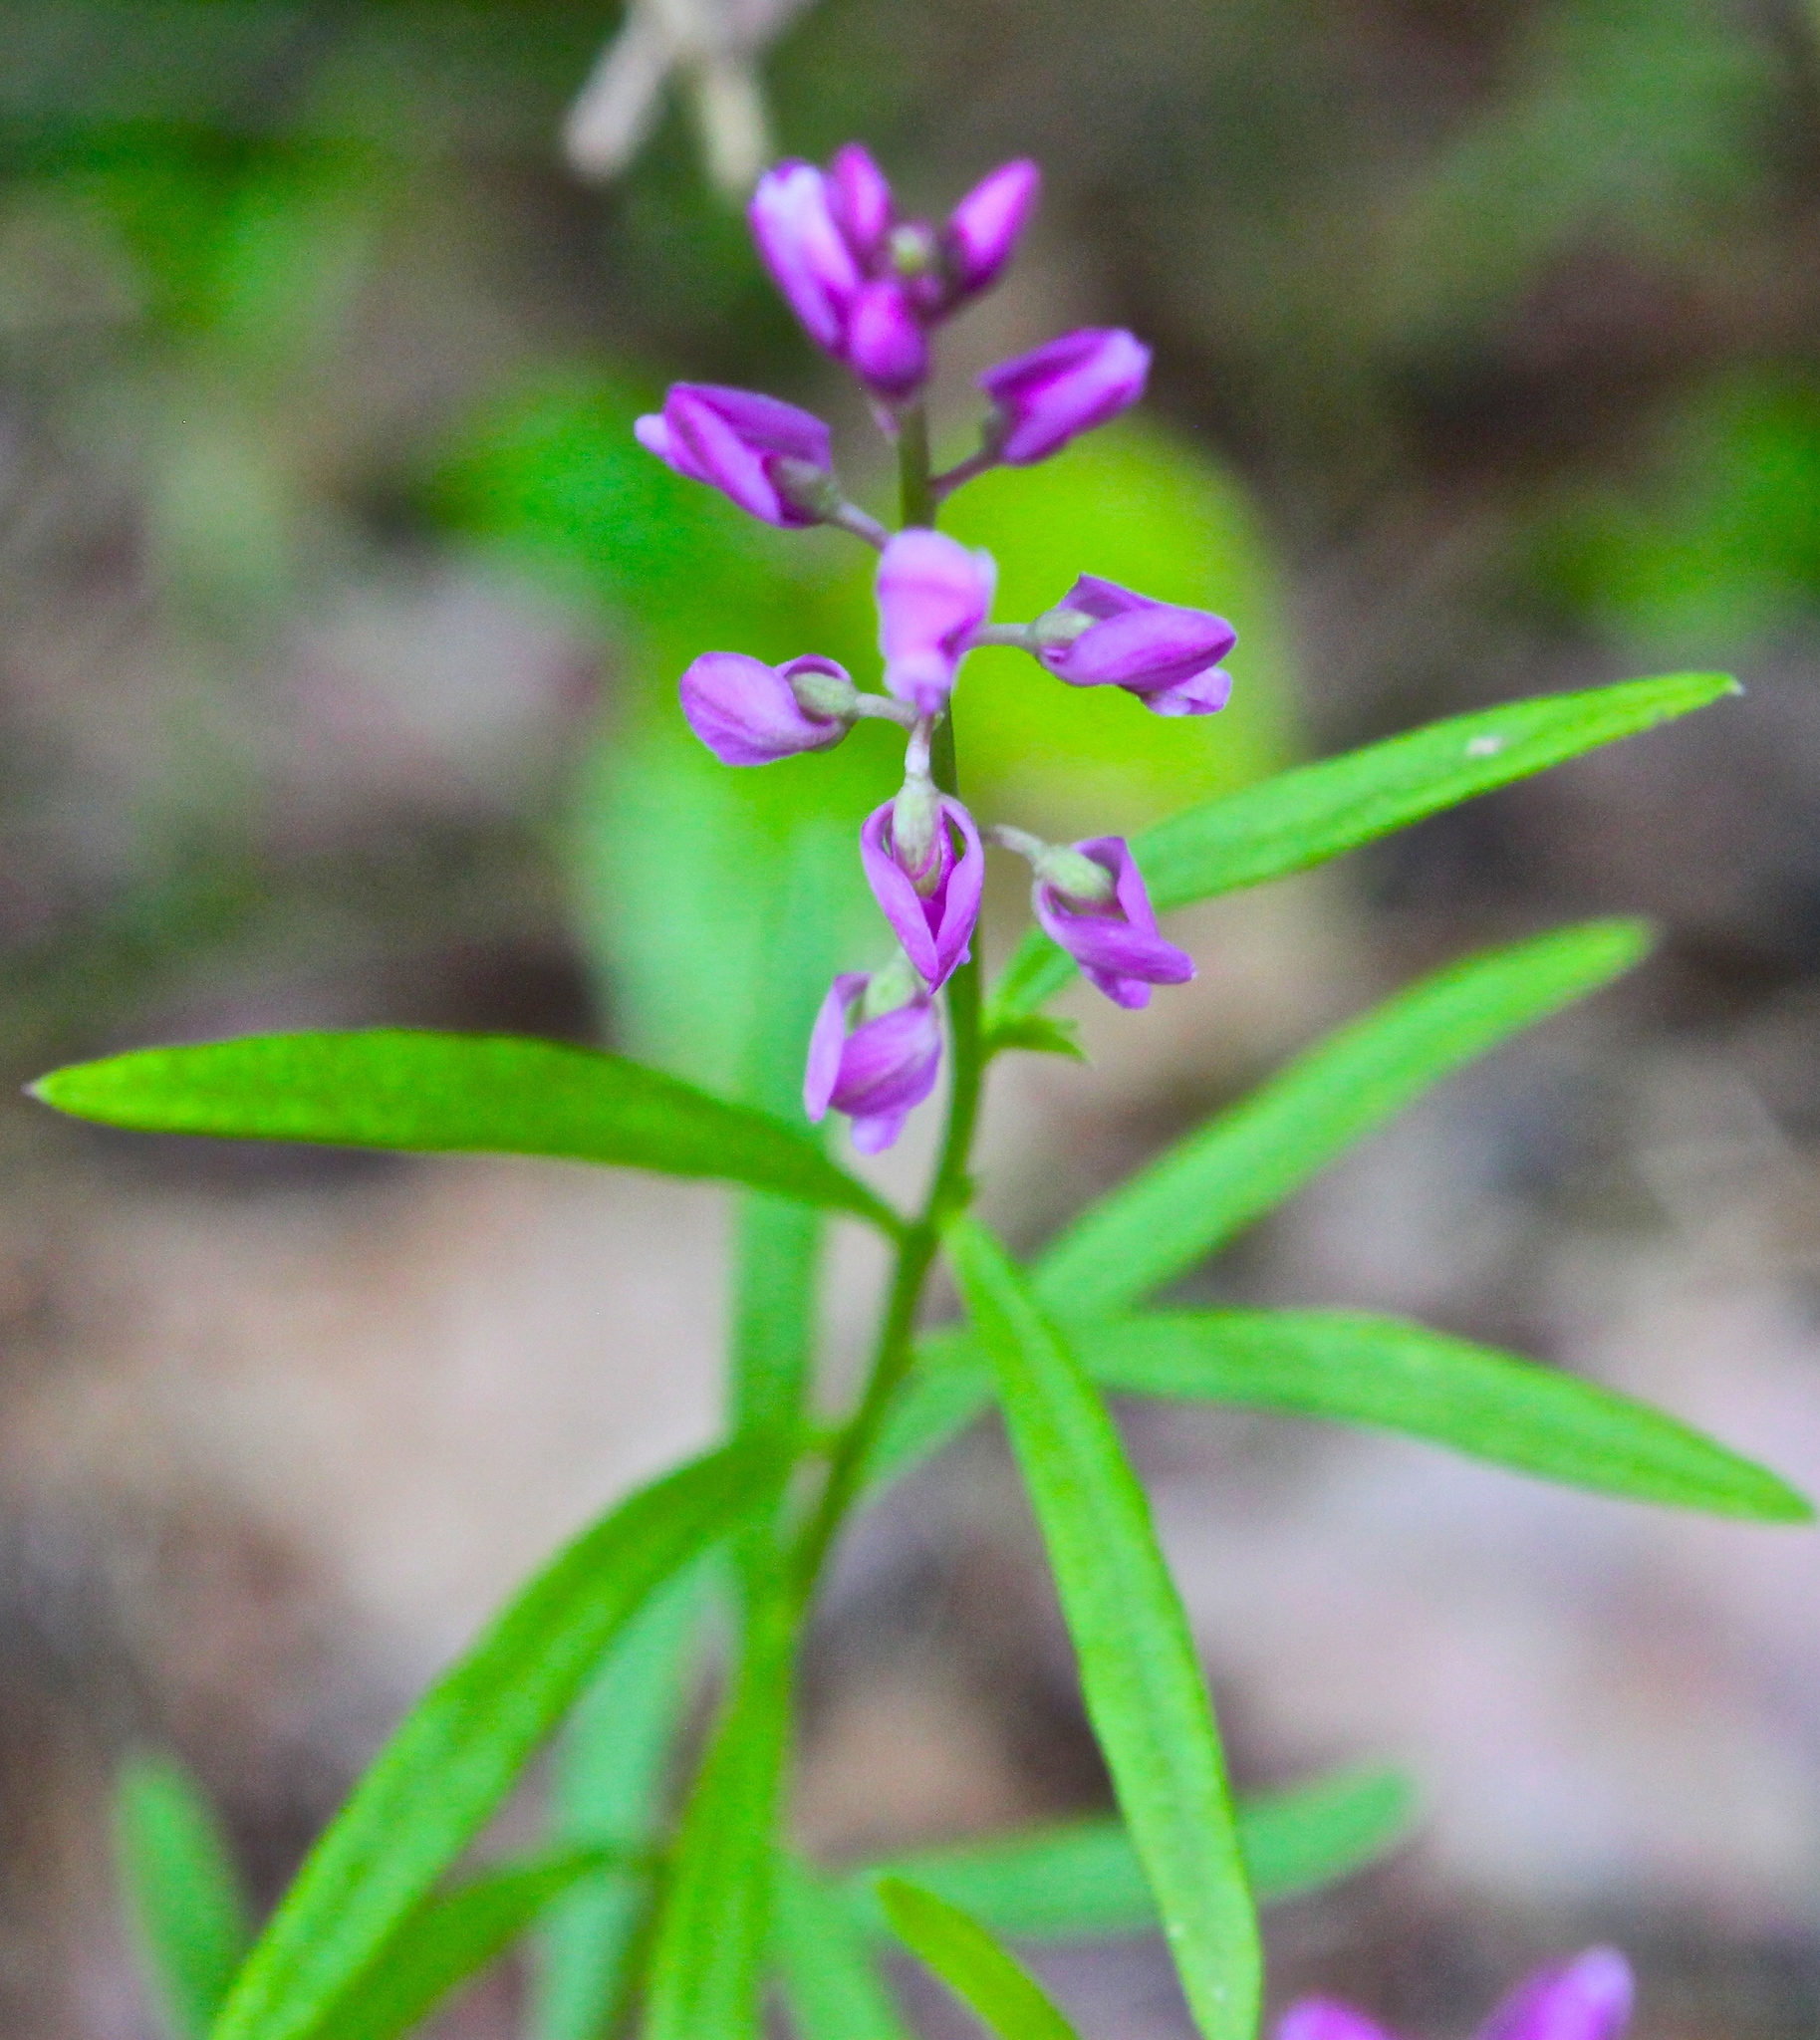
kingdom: Plantae
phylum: Tracheophyta
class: Magnoliopsida
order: Fabales
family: Polygalaceae
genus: Polygala
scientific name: Polygala polygama
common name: Bitter milkwort
